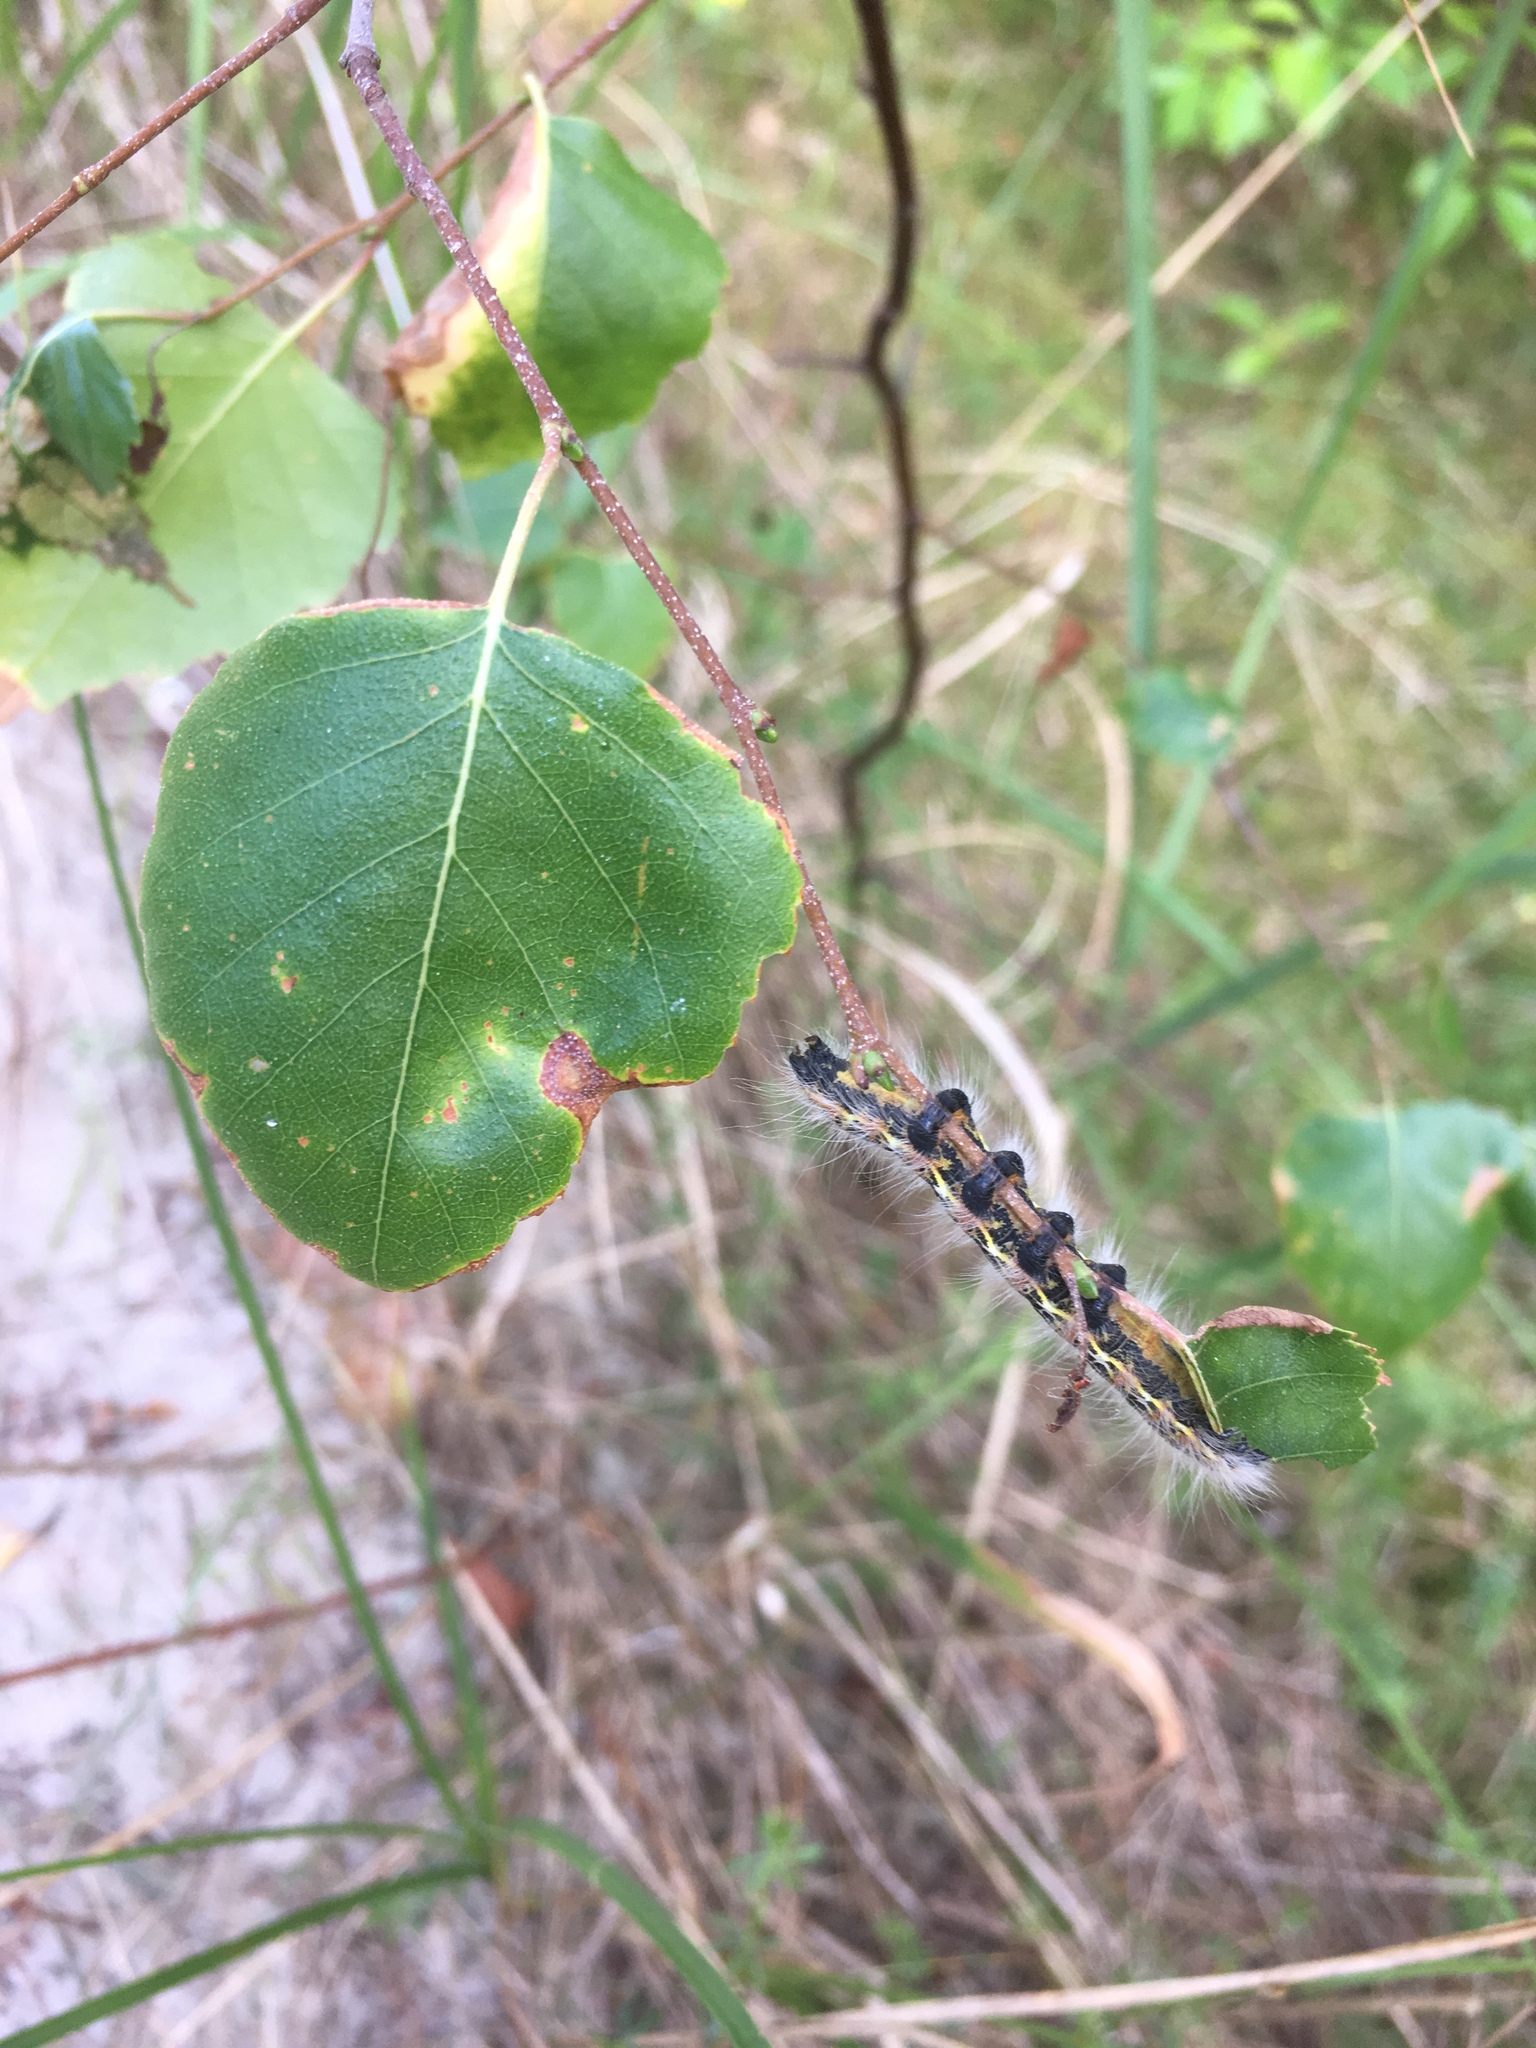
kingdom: Animalia
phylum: Arthropoda
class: Insecta
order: Lepidoptera
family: Notodontidae
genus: Phalera
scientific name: Phalera bucephala
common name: Buff-tip
